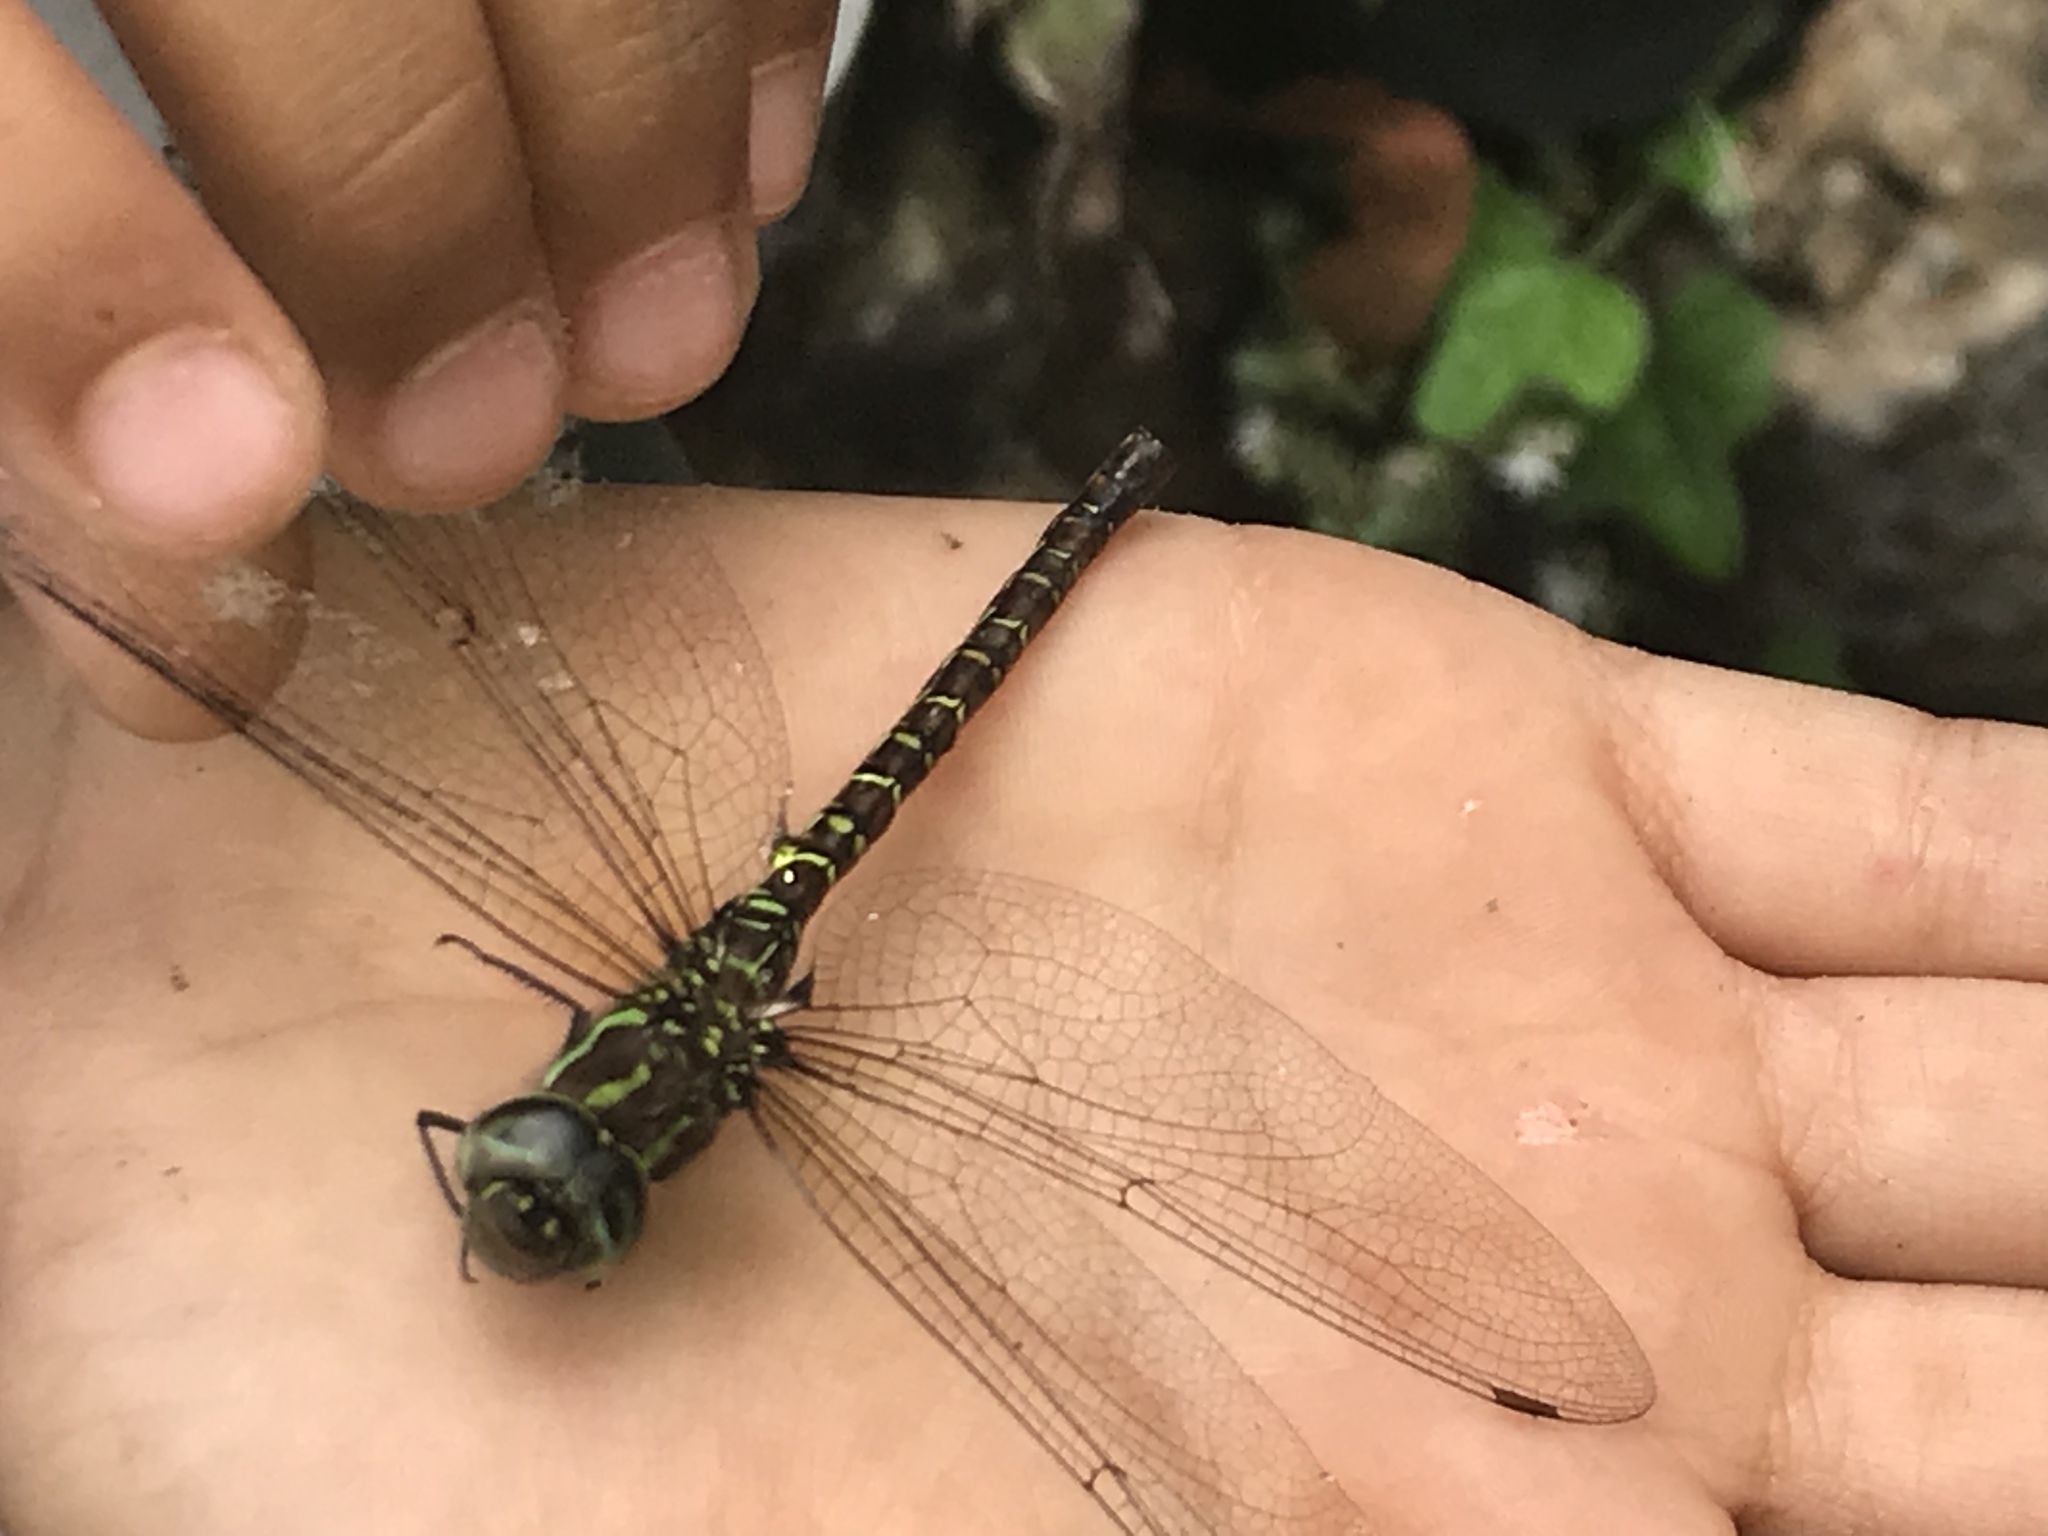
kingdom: Animalia
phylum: Arthropoda
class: Insecta
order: Odonata
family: Aeshnidae
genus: Rhionaeschna
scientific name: Rhionaeschna psilus
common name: Turquoise-tipped darner
